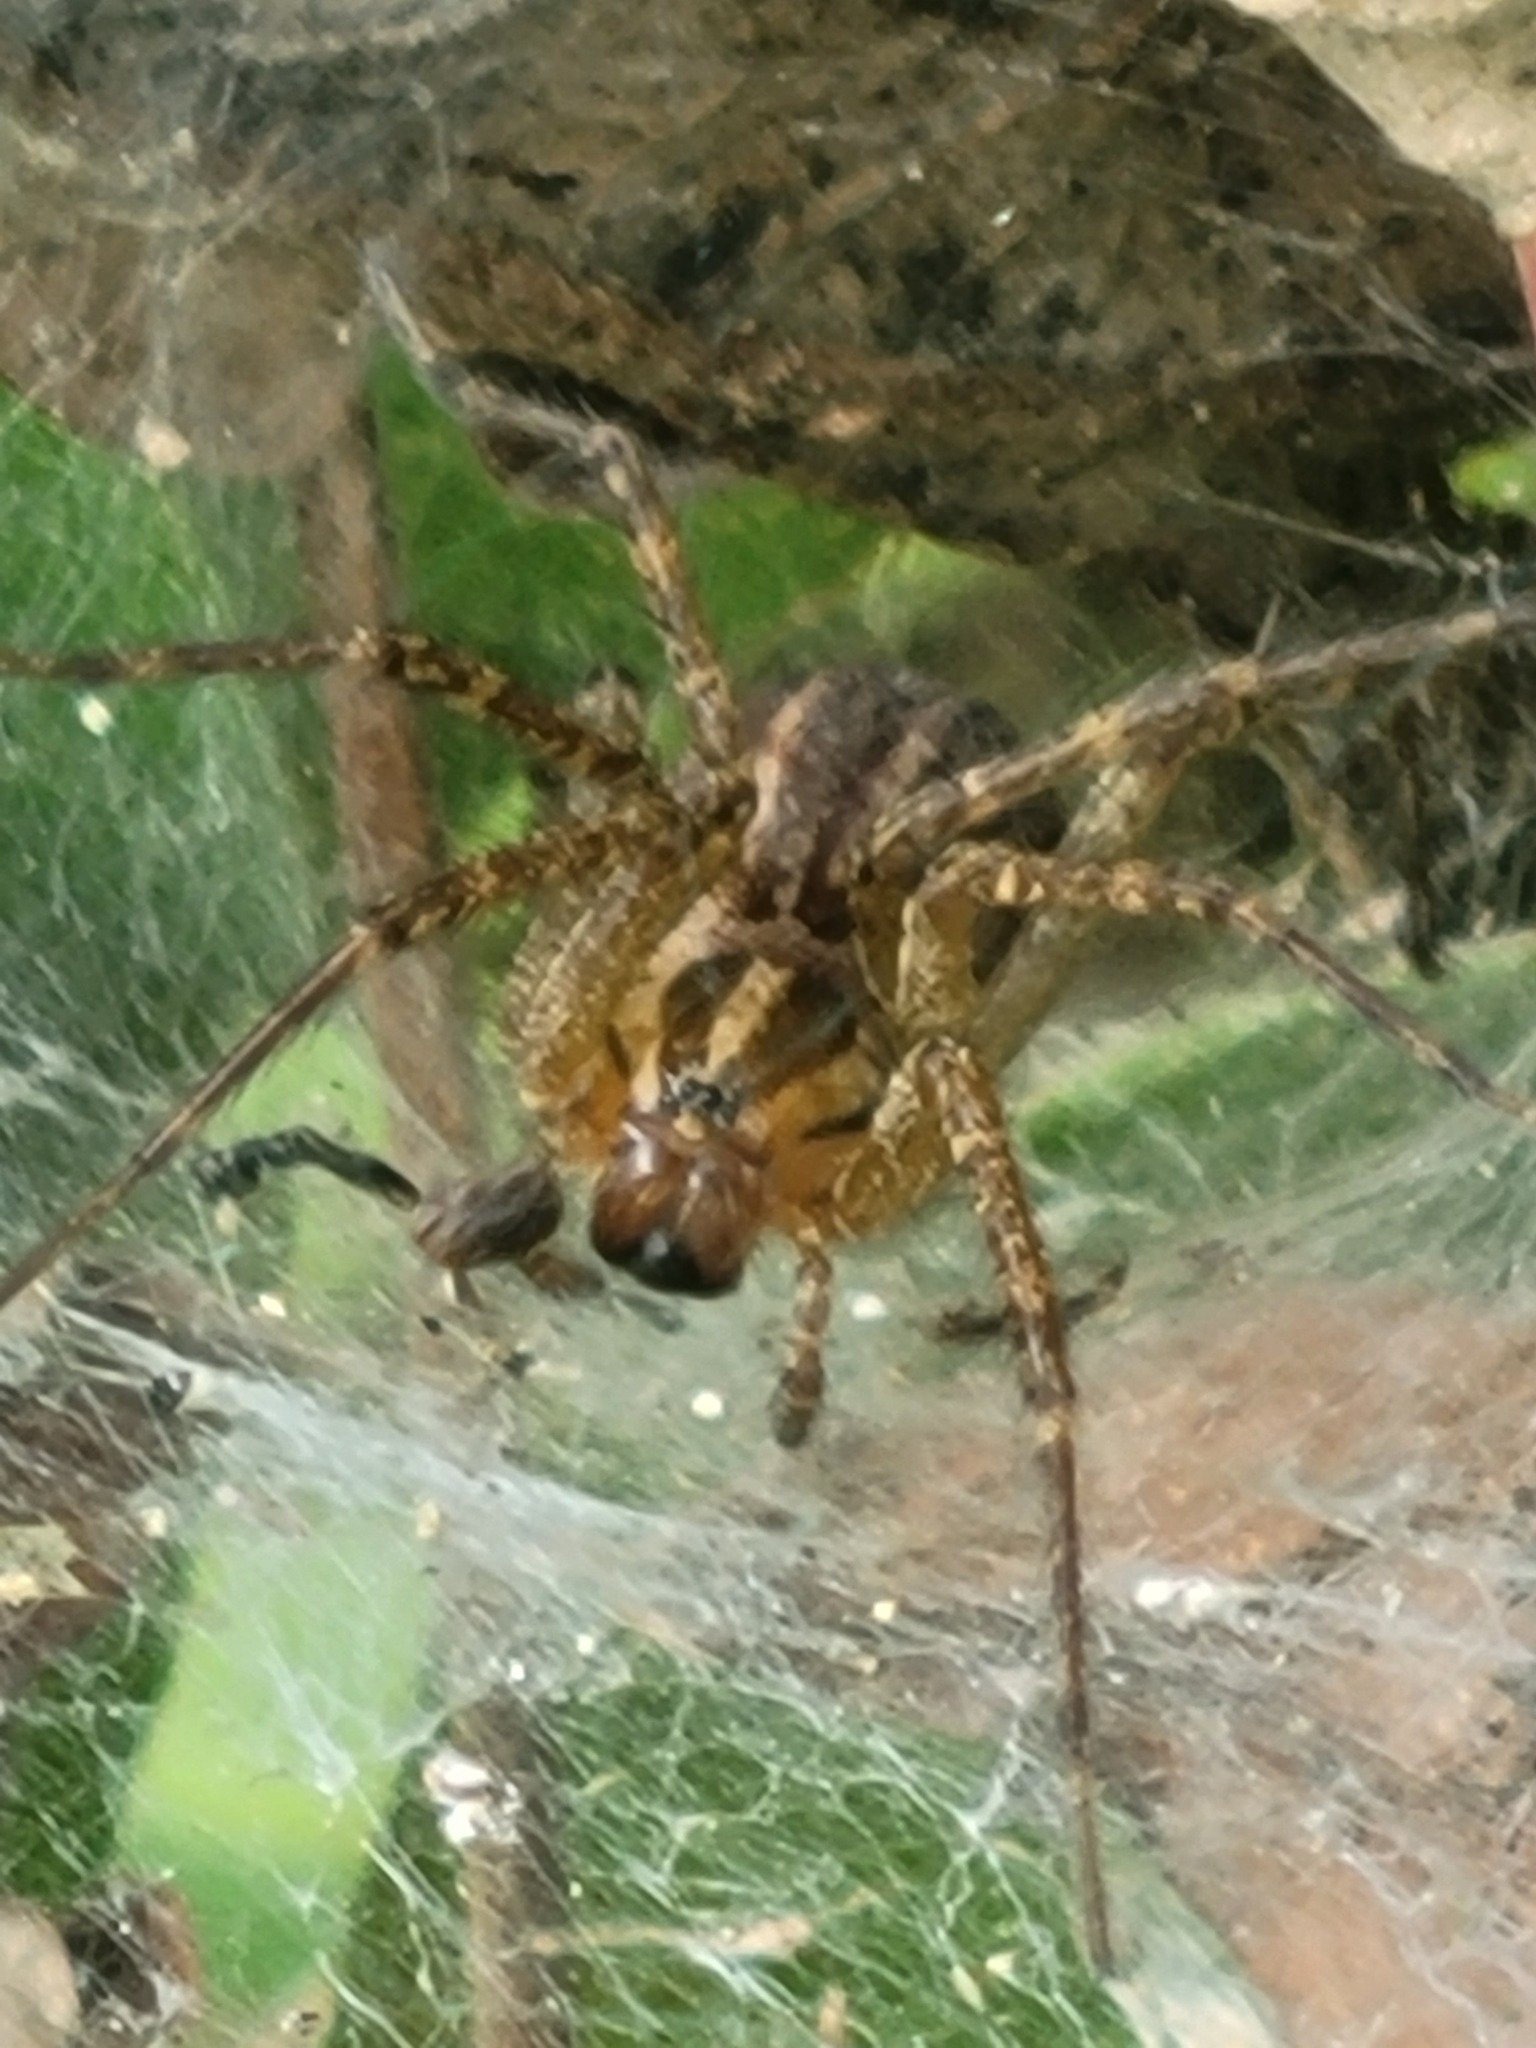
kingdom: Animalia
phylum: Arthropoda
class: Arachnida
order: Araneae
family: Agelenidae
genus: Agelenopsis
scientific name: Agelenopsis
